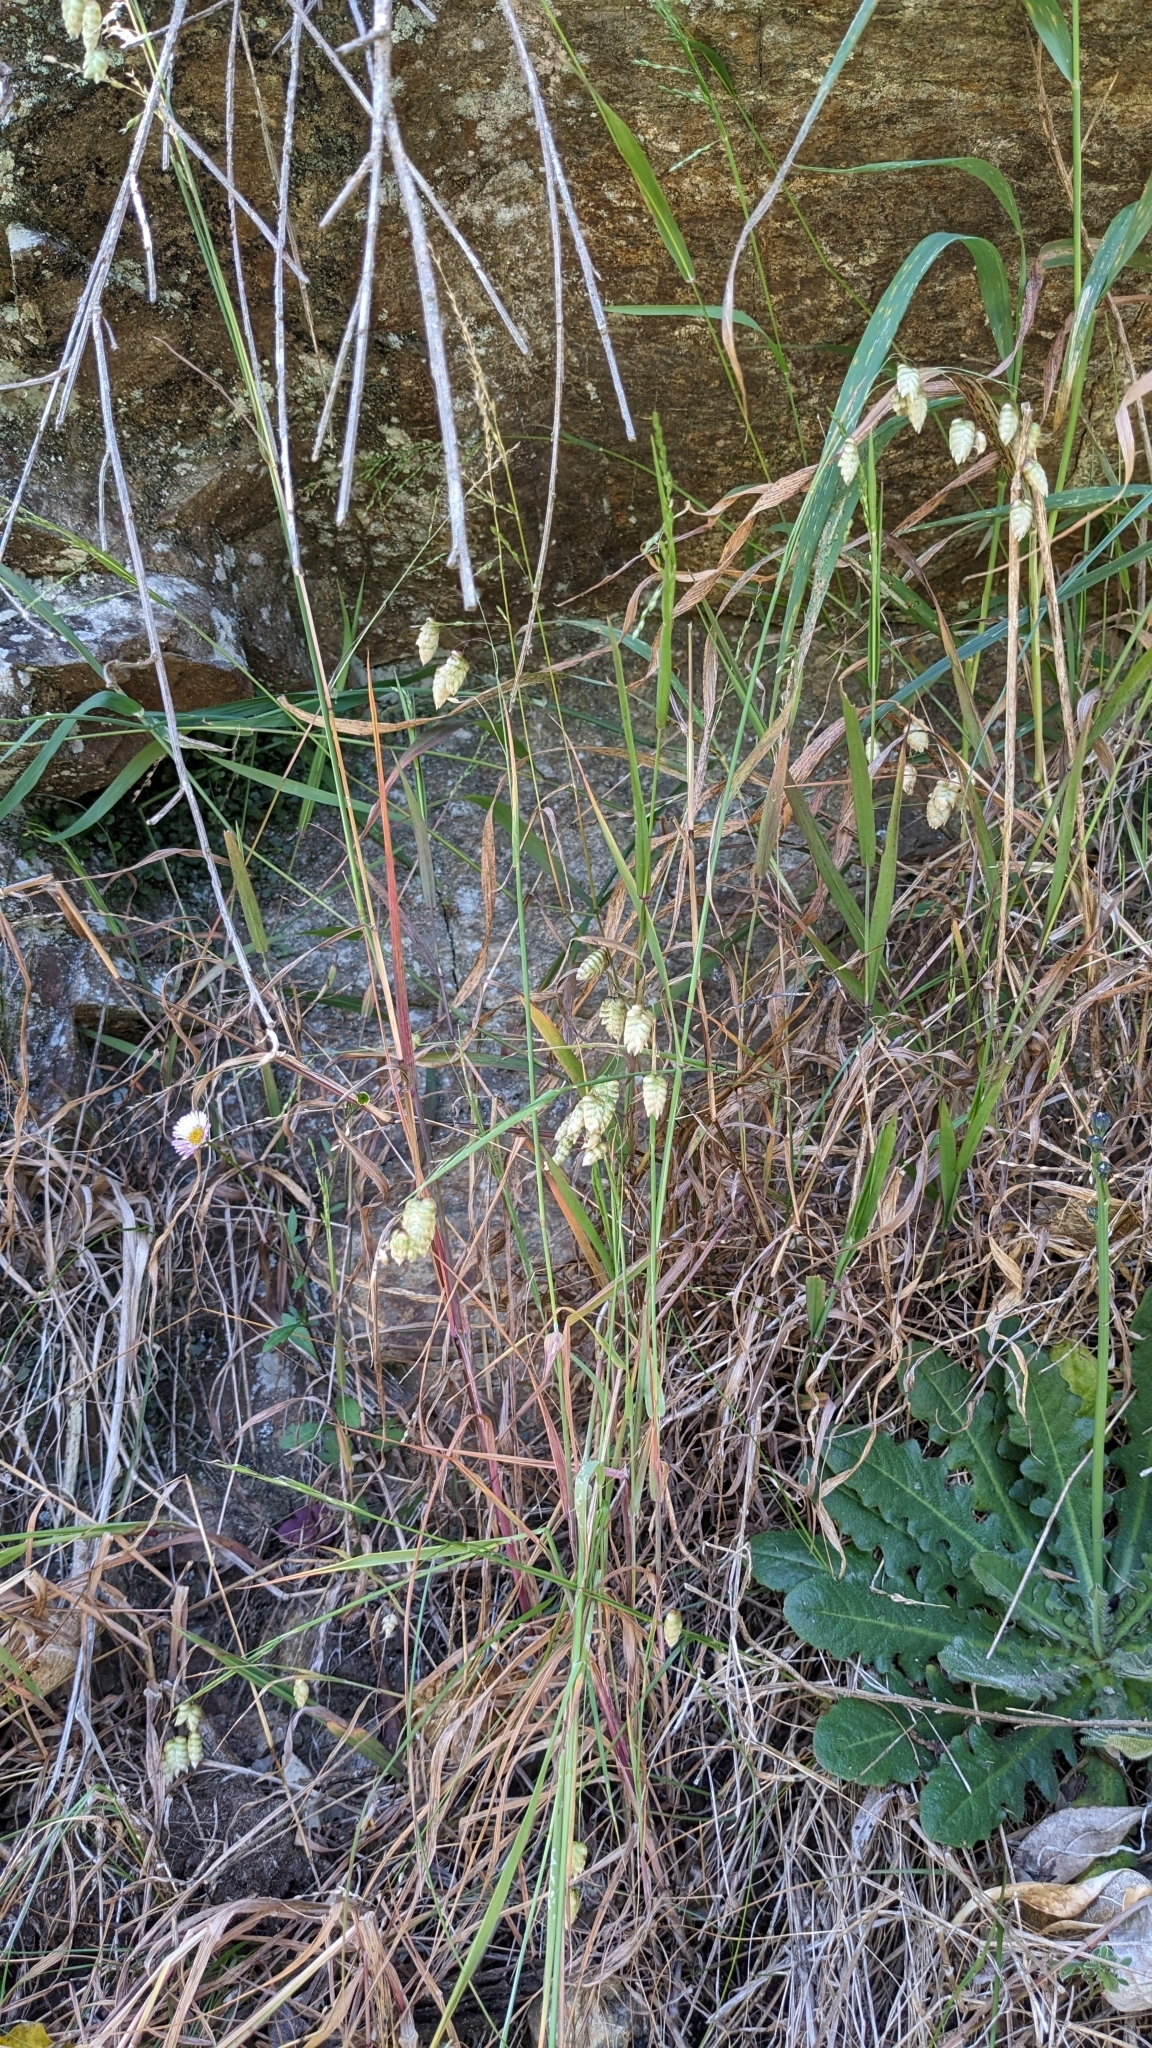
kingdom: Plantae
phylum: Tracheophyta
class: Liliopsida
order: Poales
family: Poaceae
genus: Briza
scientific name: Briza maxima
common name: Big quakinggrass
